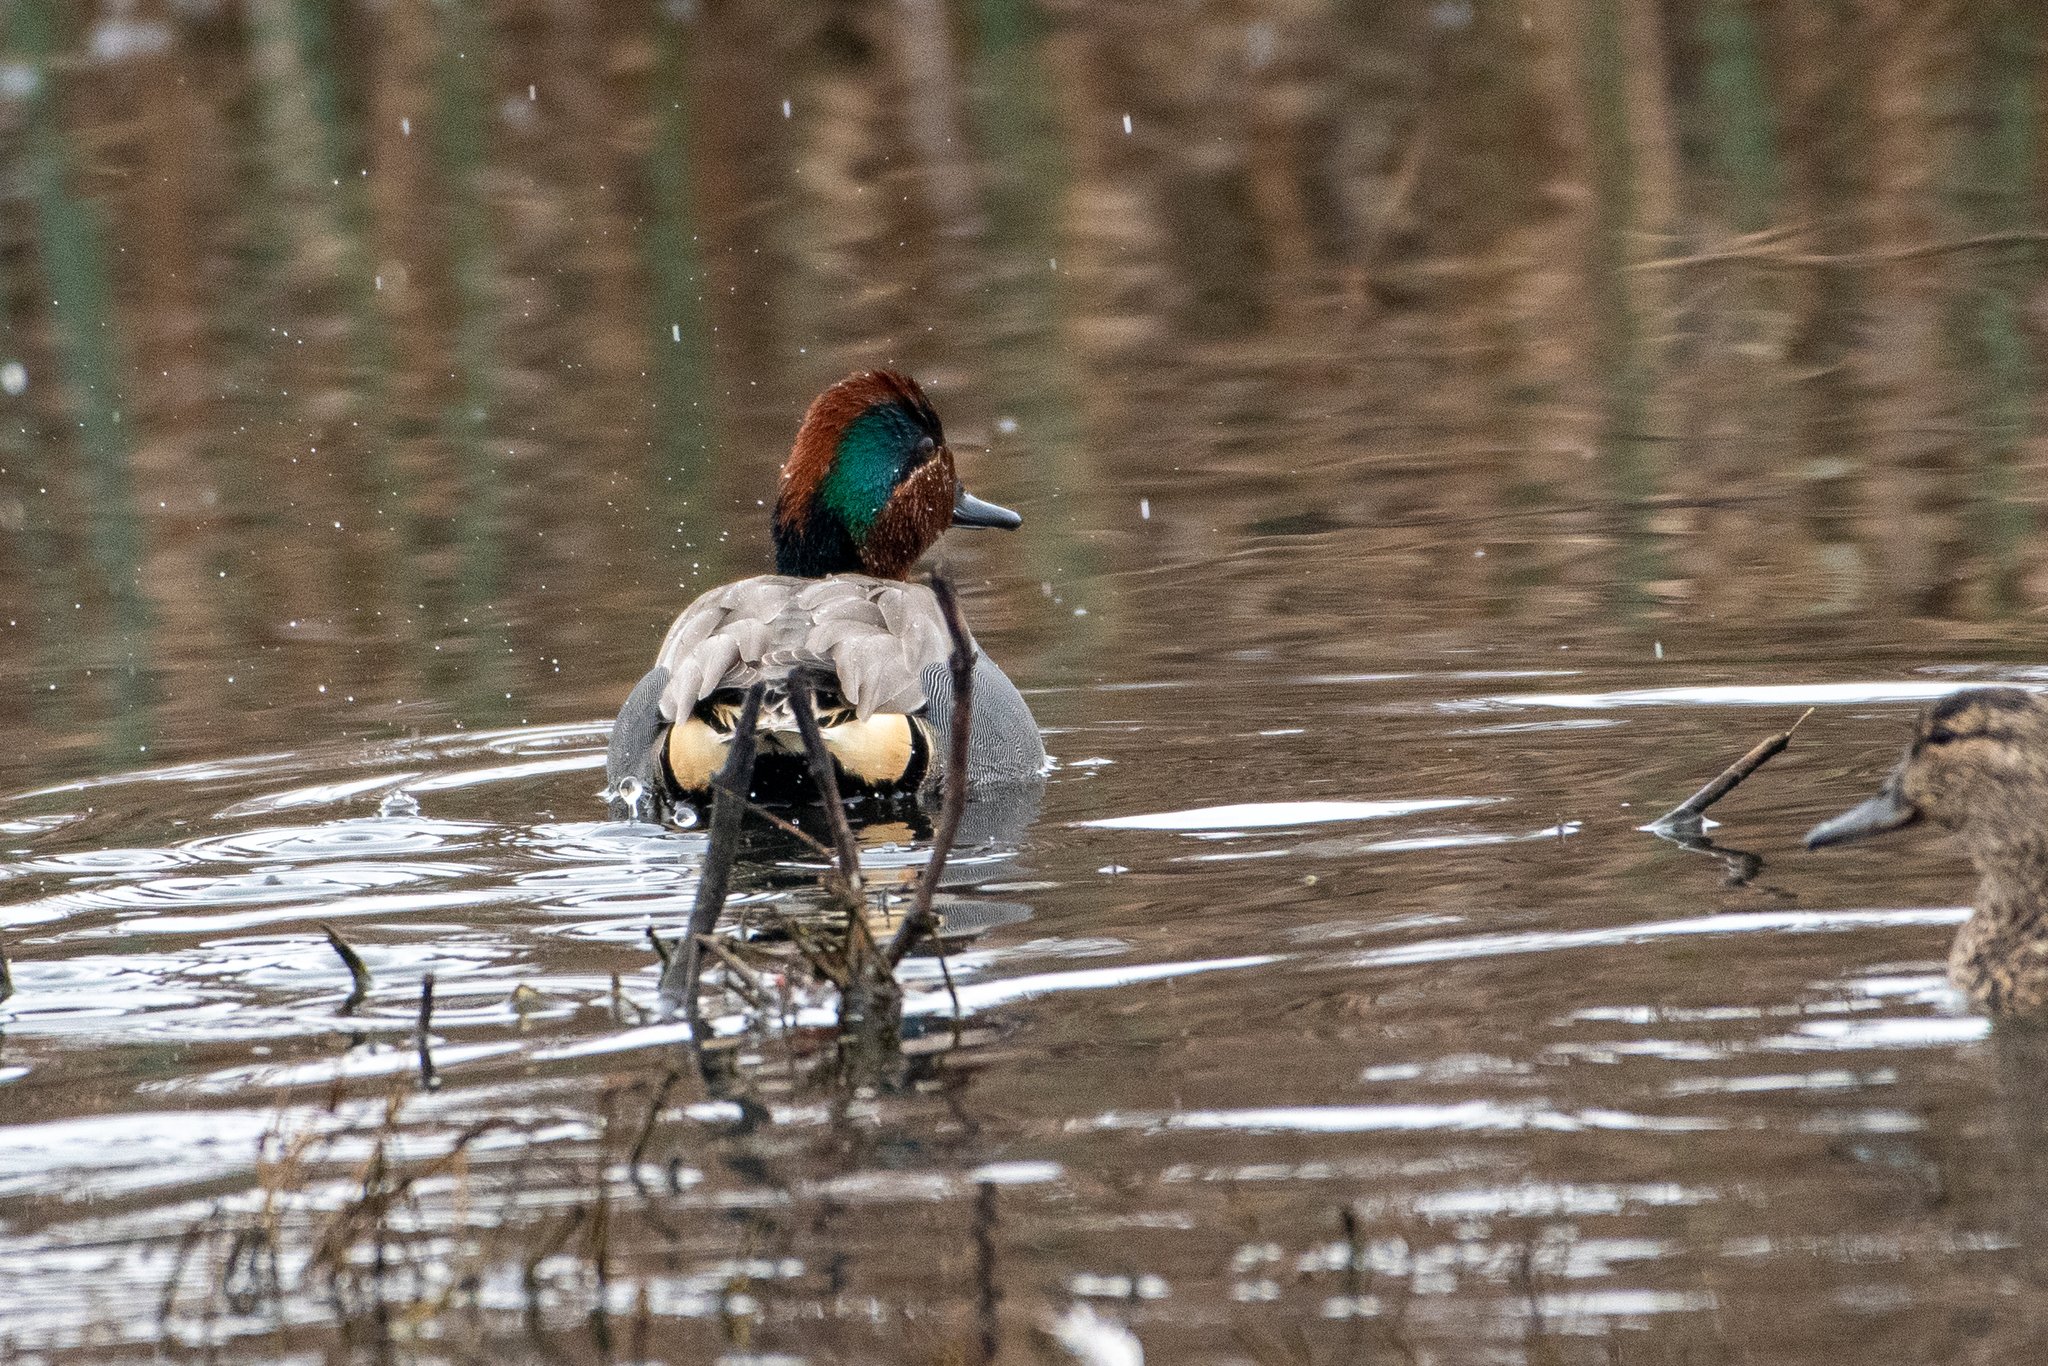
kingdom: Animalia
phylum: Chordata
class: Aves
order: Anseriformes
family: Anatidae
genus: Anas
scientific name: Anas crecca
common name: Eurasian teal
